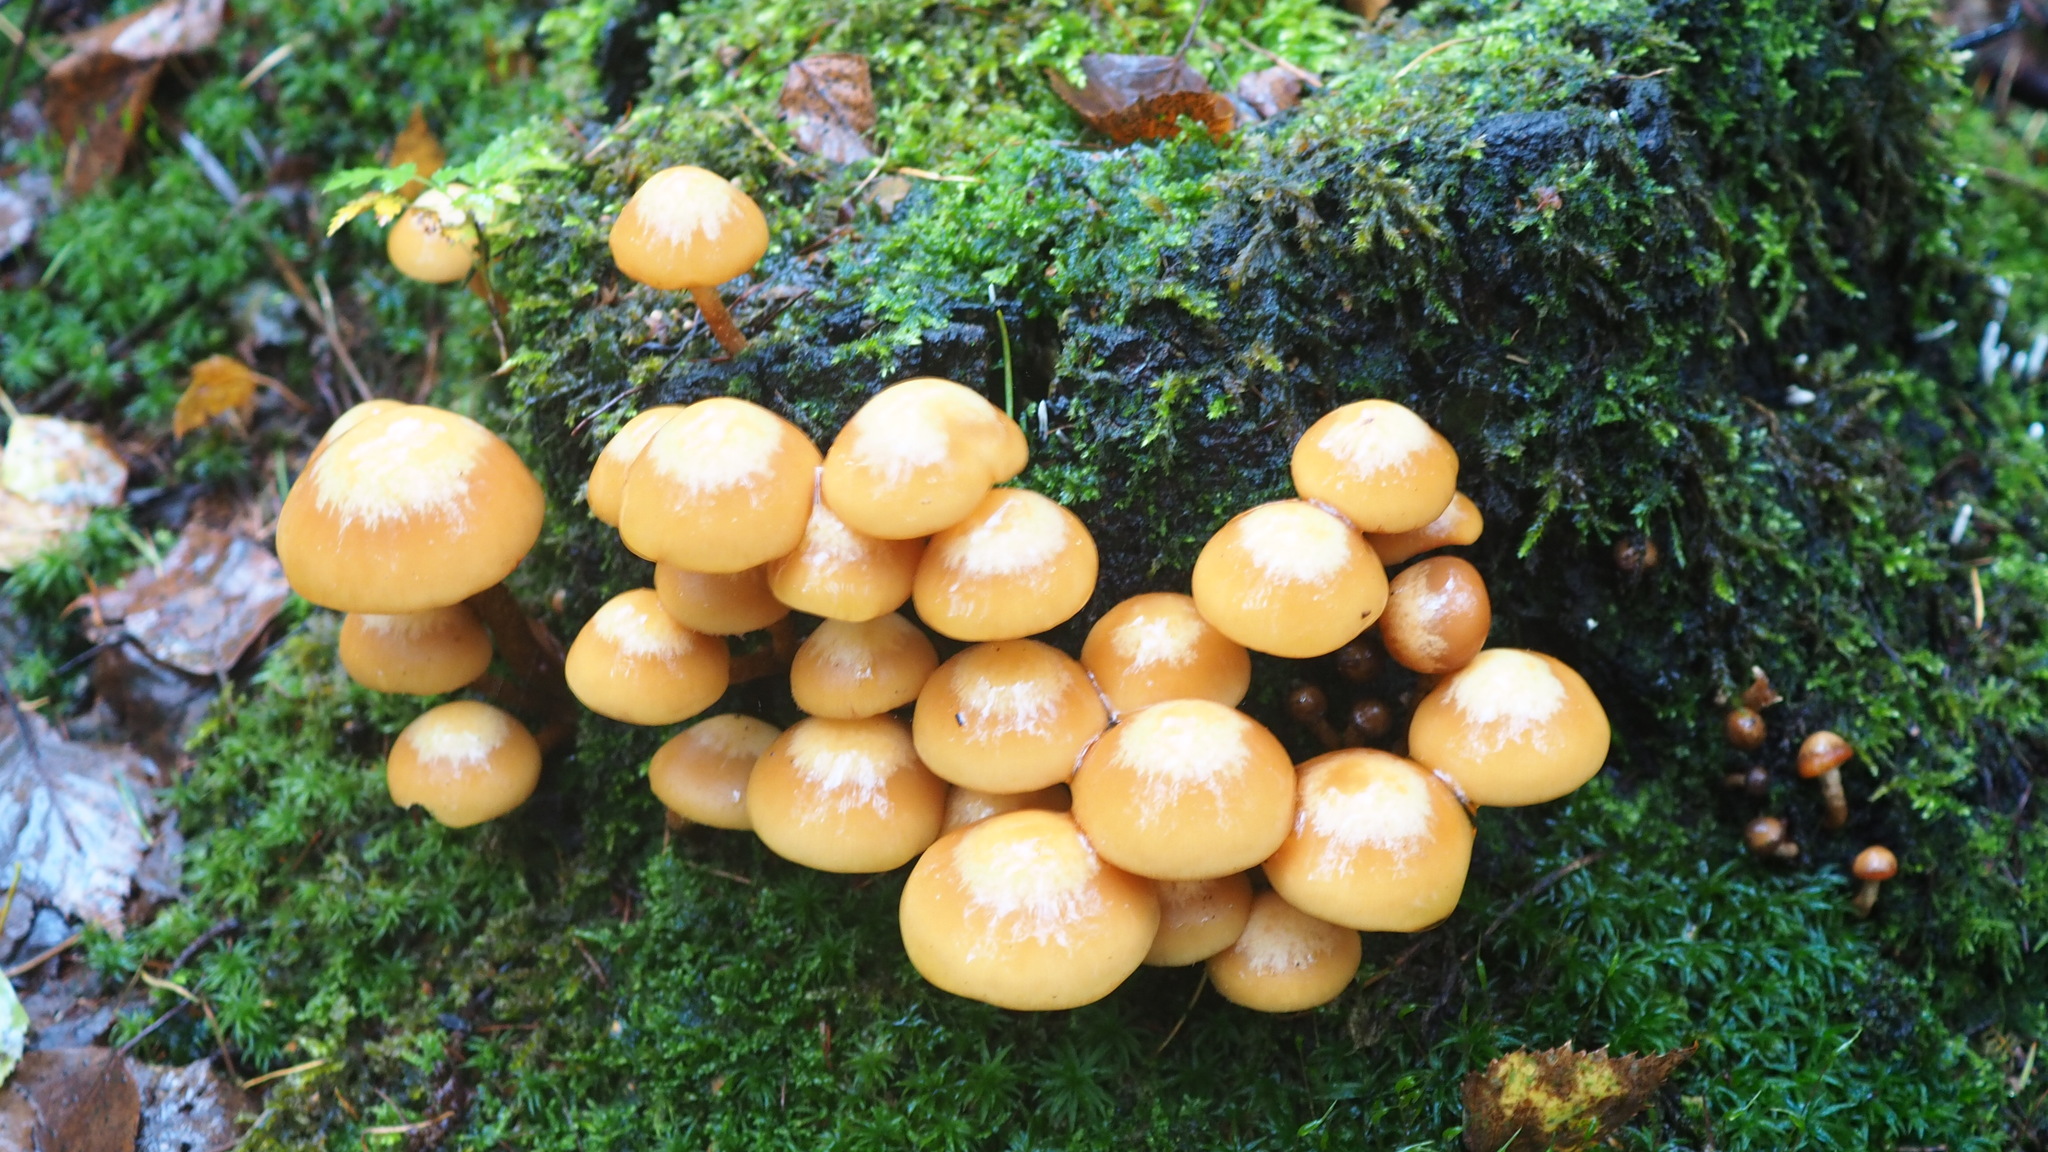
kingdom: Fungi
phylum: Basidiomycota
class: Agaricomycetes
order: Agaricales
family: Strophariaceae
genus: Kuehneromyces
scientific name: Kuehneromyces mutabilis
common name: Sheathed woodtuft
